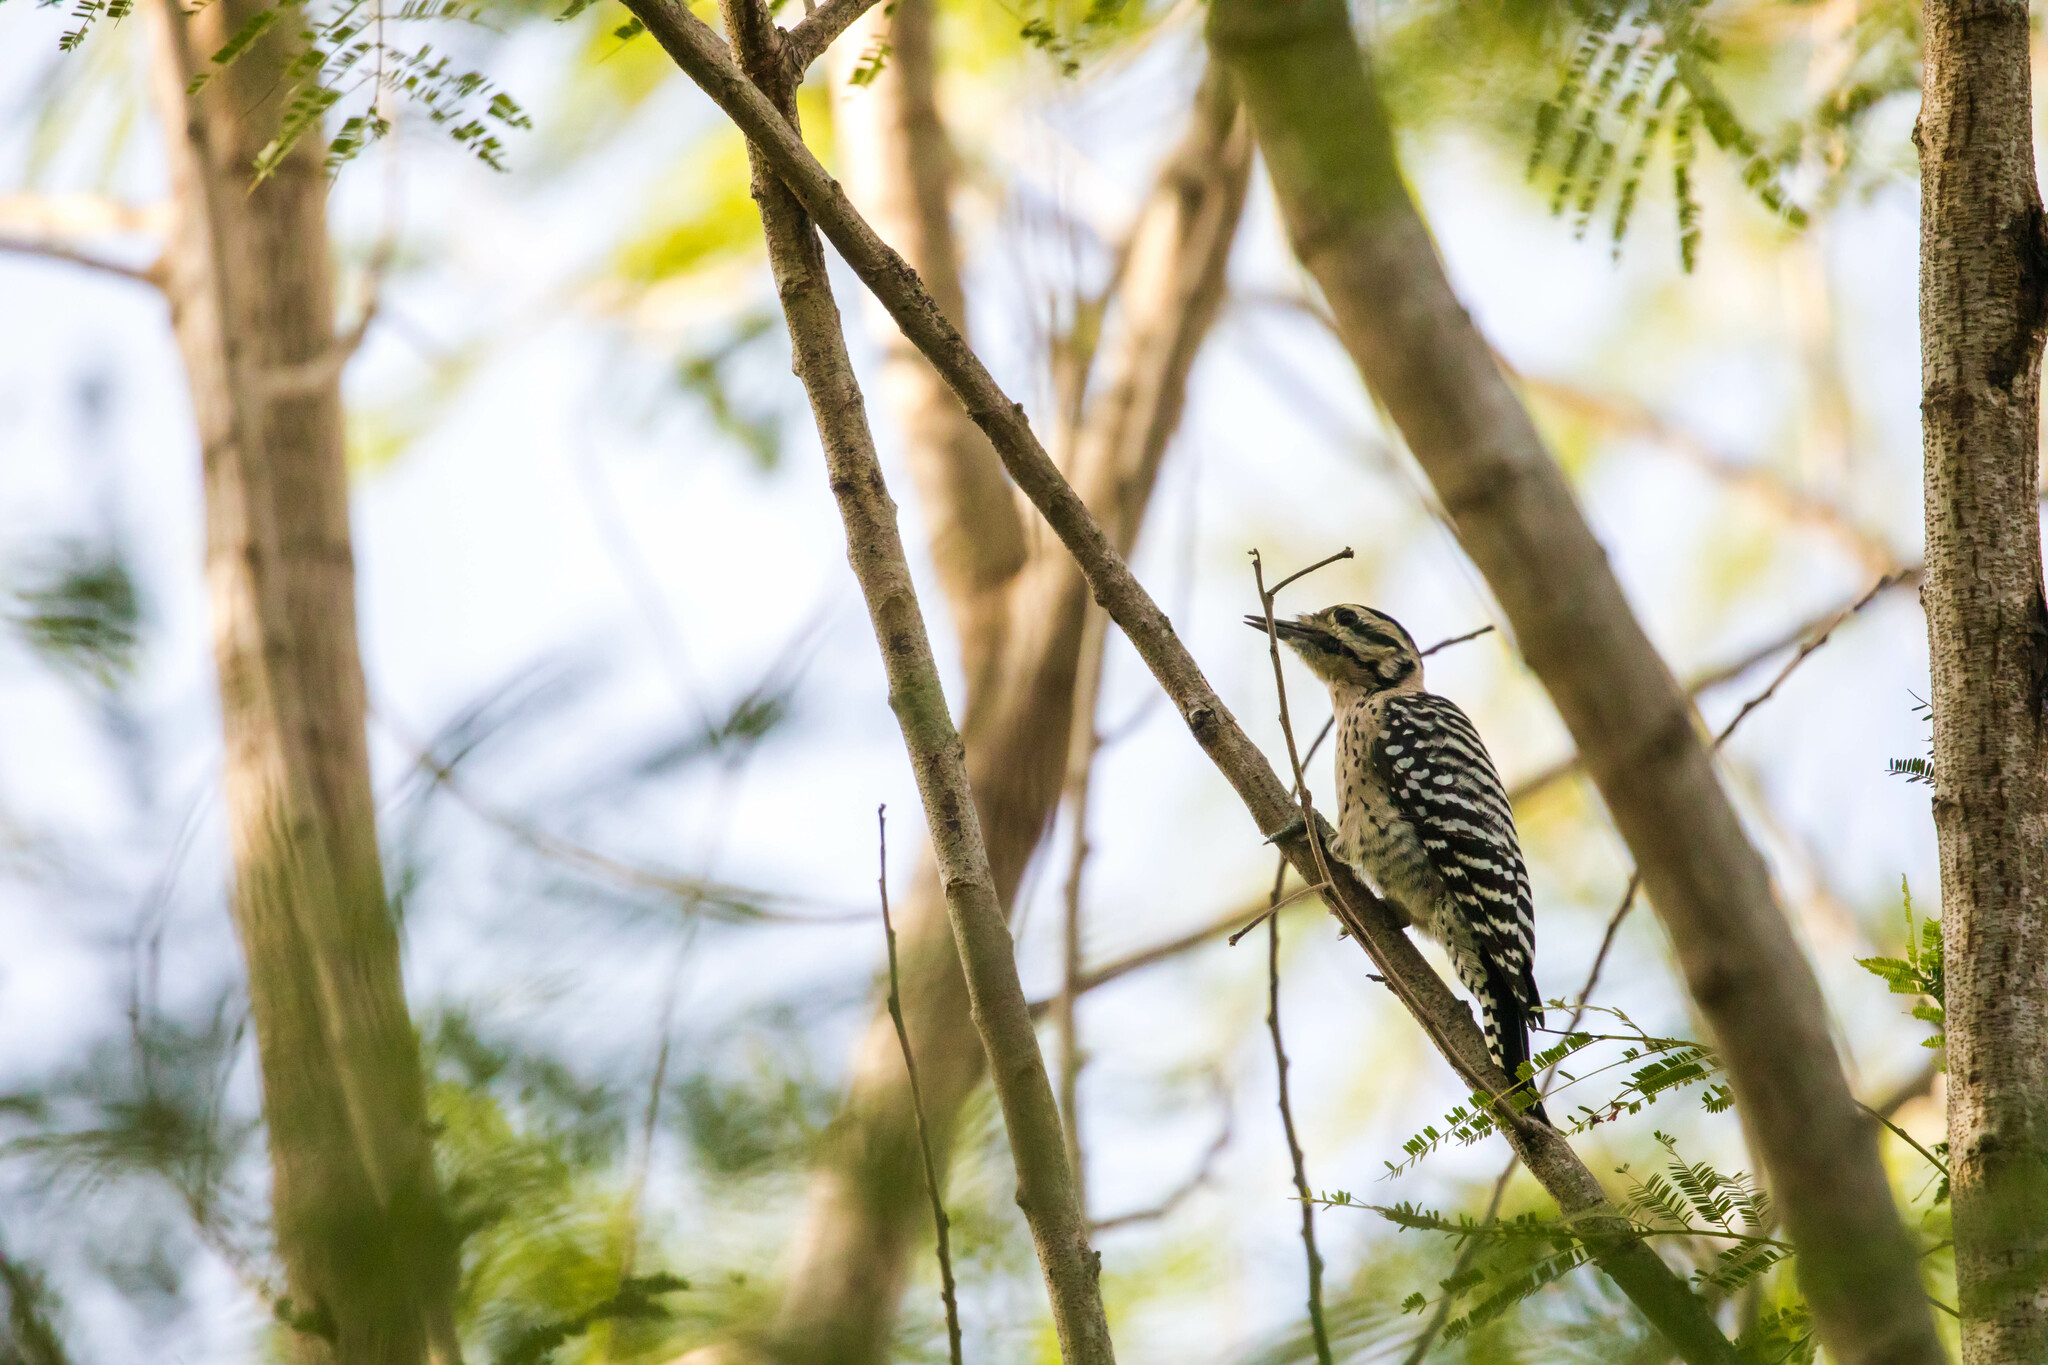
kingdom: Animalia
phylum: Chordata
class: Aves
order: Piciformes
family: Picidae
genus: Dryobates
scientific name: Dryobates scalaris
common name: Ladder-backed woodpecker
